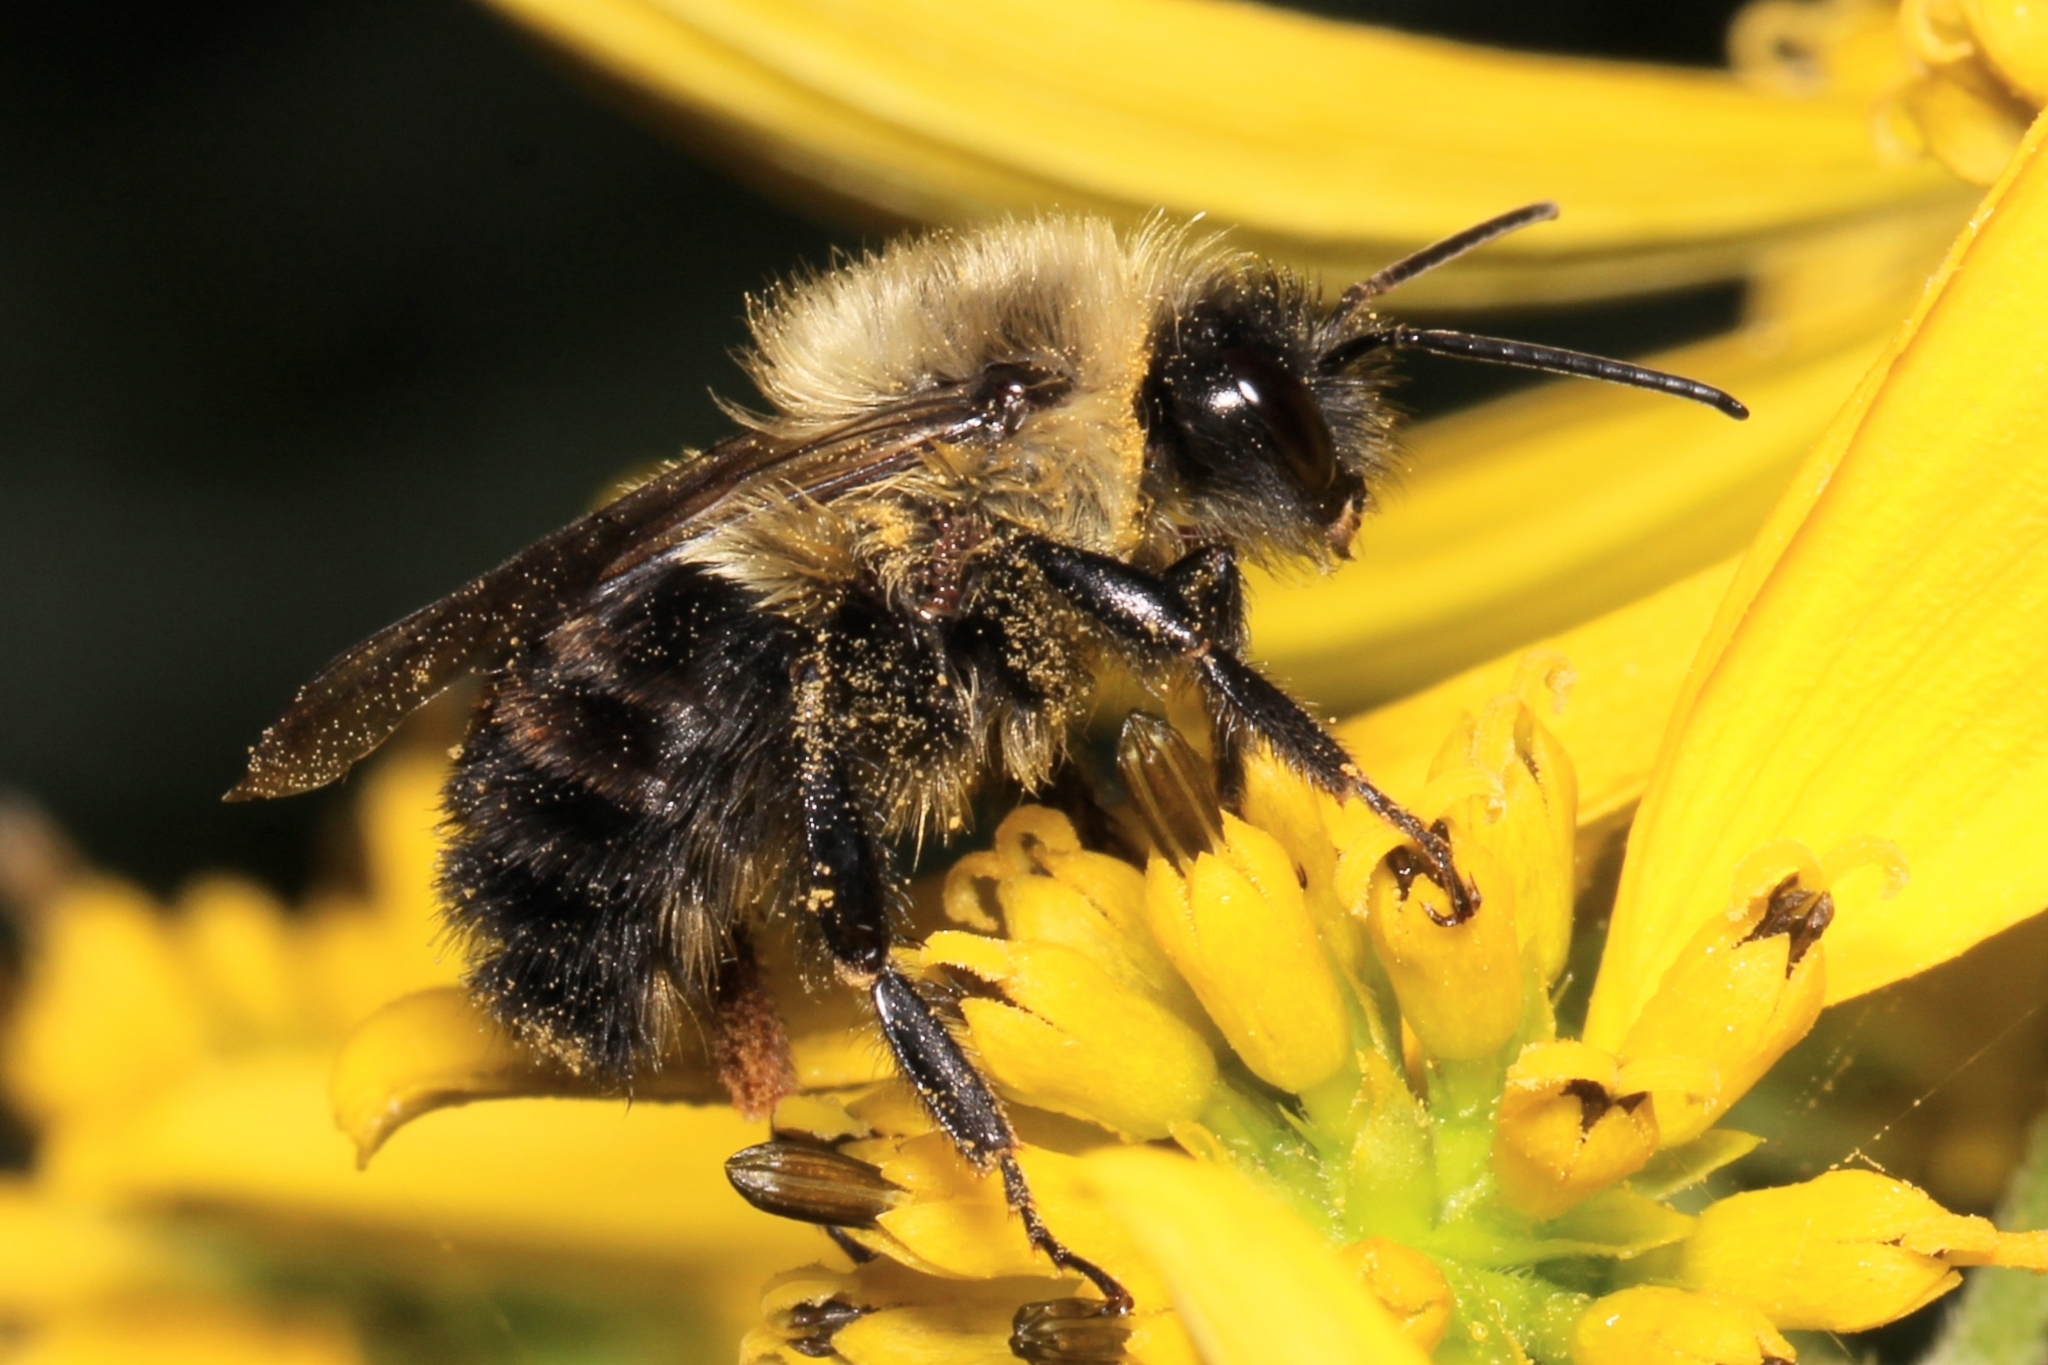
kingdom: Animalia
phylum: Arthropoda
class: Insecta
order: Hymenoptera
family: Apidae
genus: Bombus
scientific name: Bombus impatiens
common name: Common eastern bumble bee
